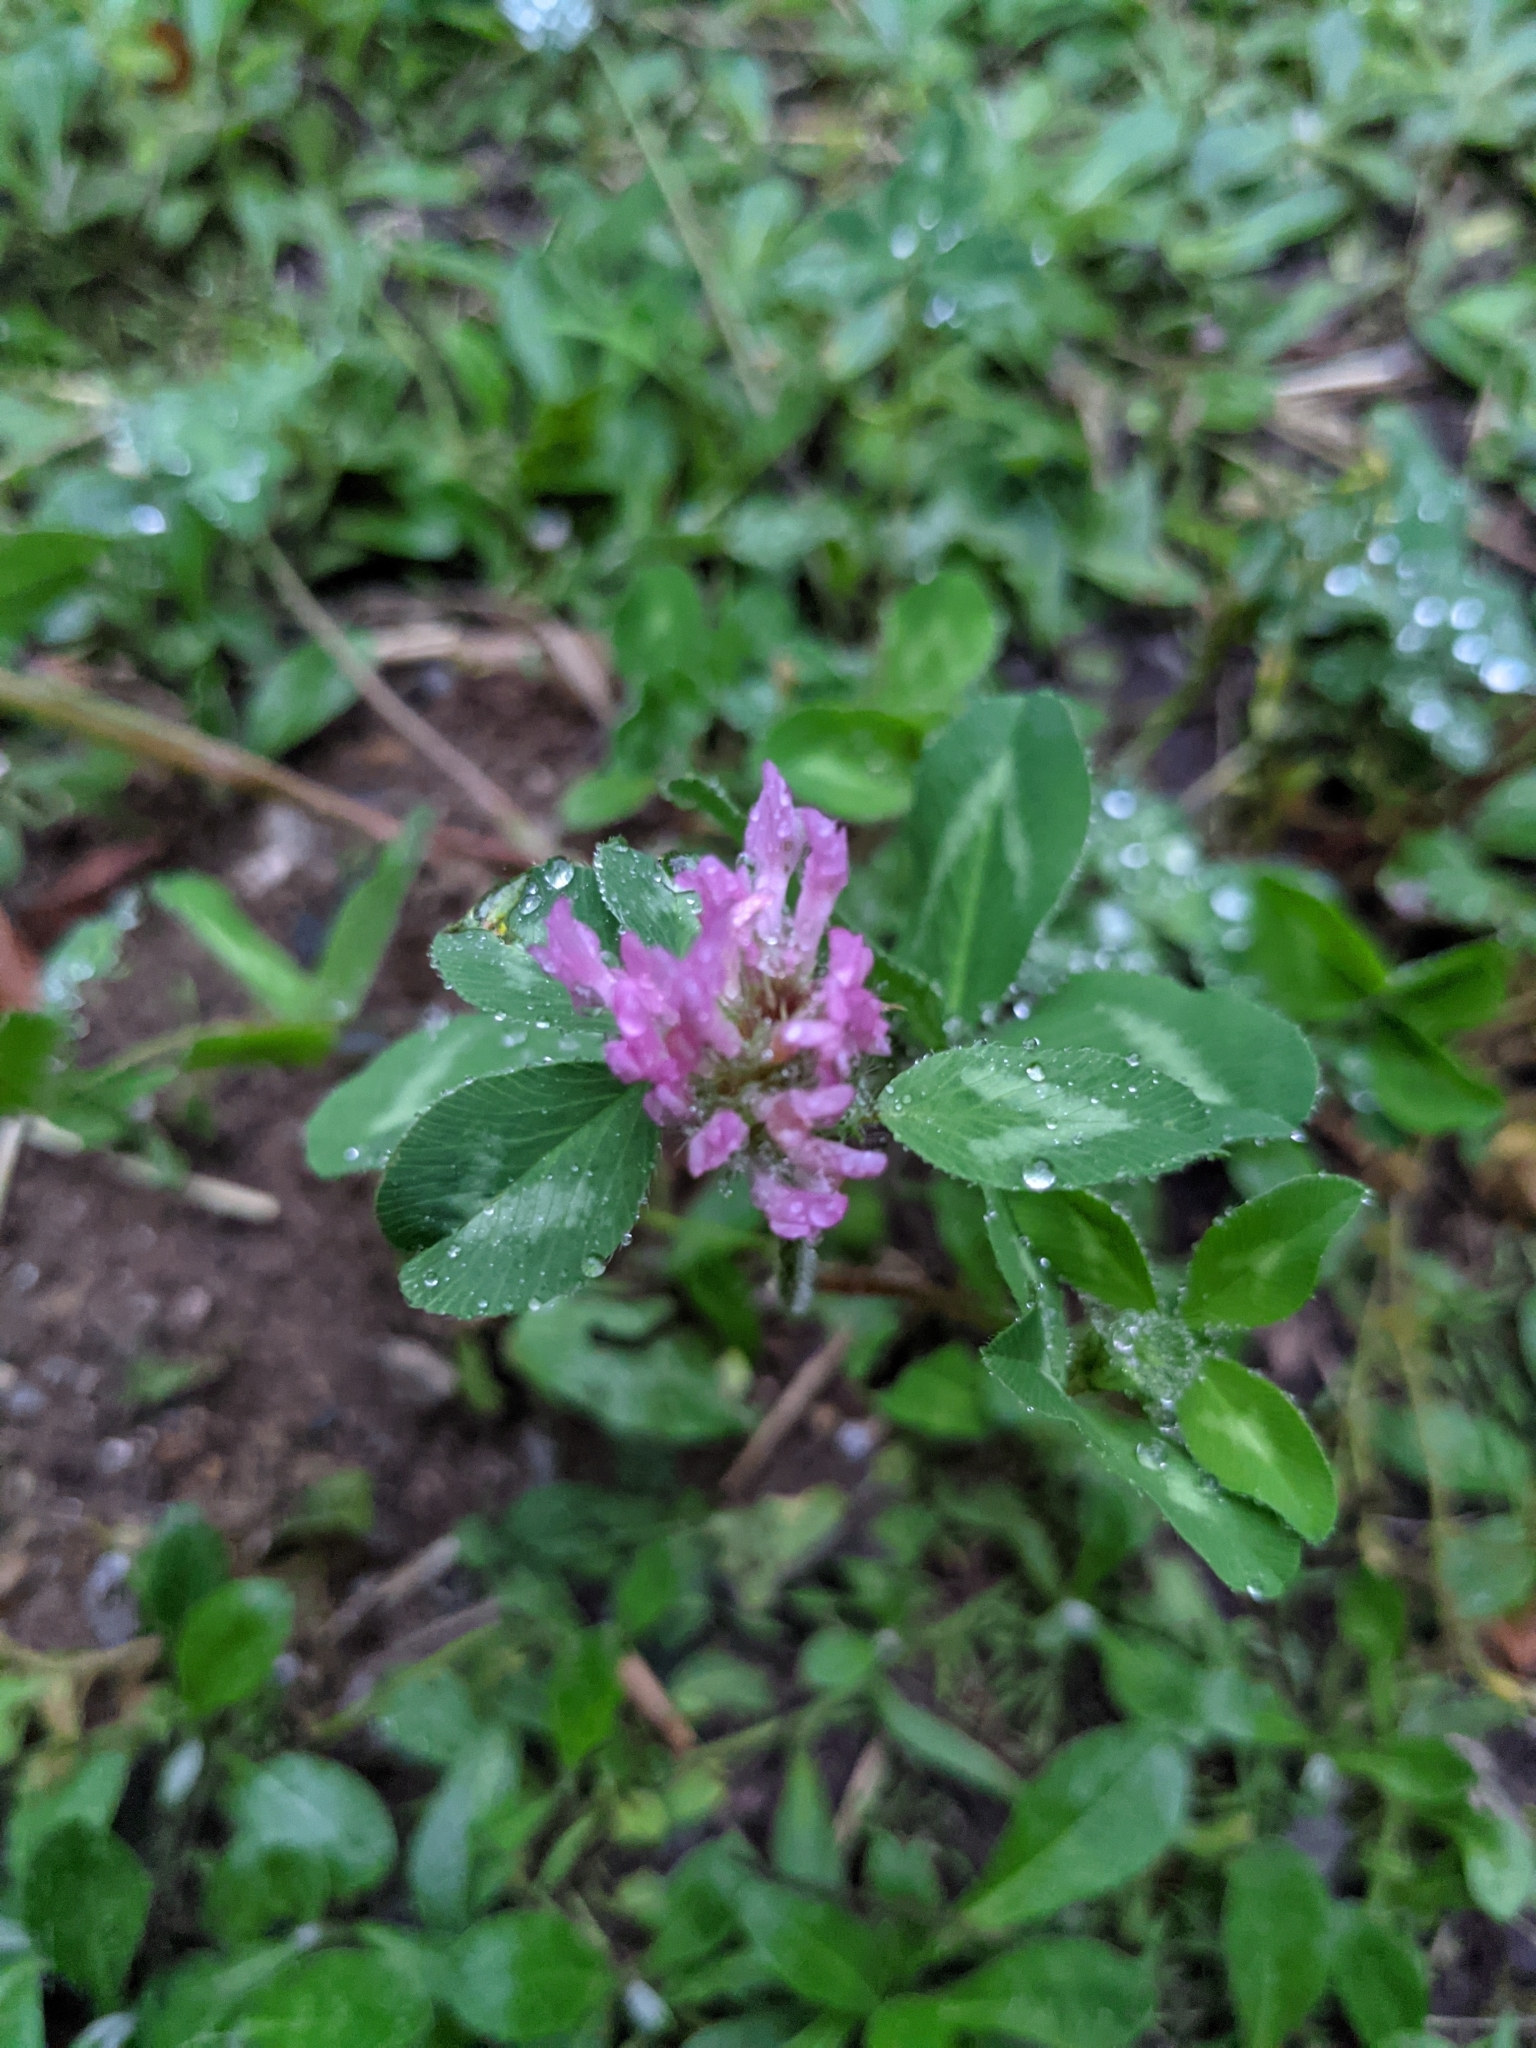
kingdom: Plantae
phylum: Tracheophyta
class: Magnoliopsida
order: Fabales
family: Fabaceae
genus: Trifolium
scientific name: Trifolium pratense
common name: Red clover
